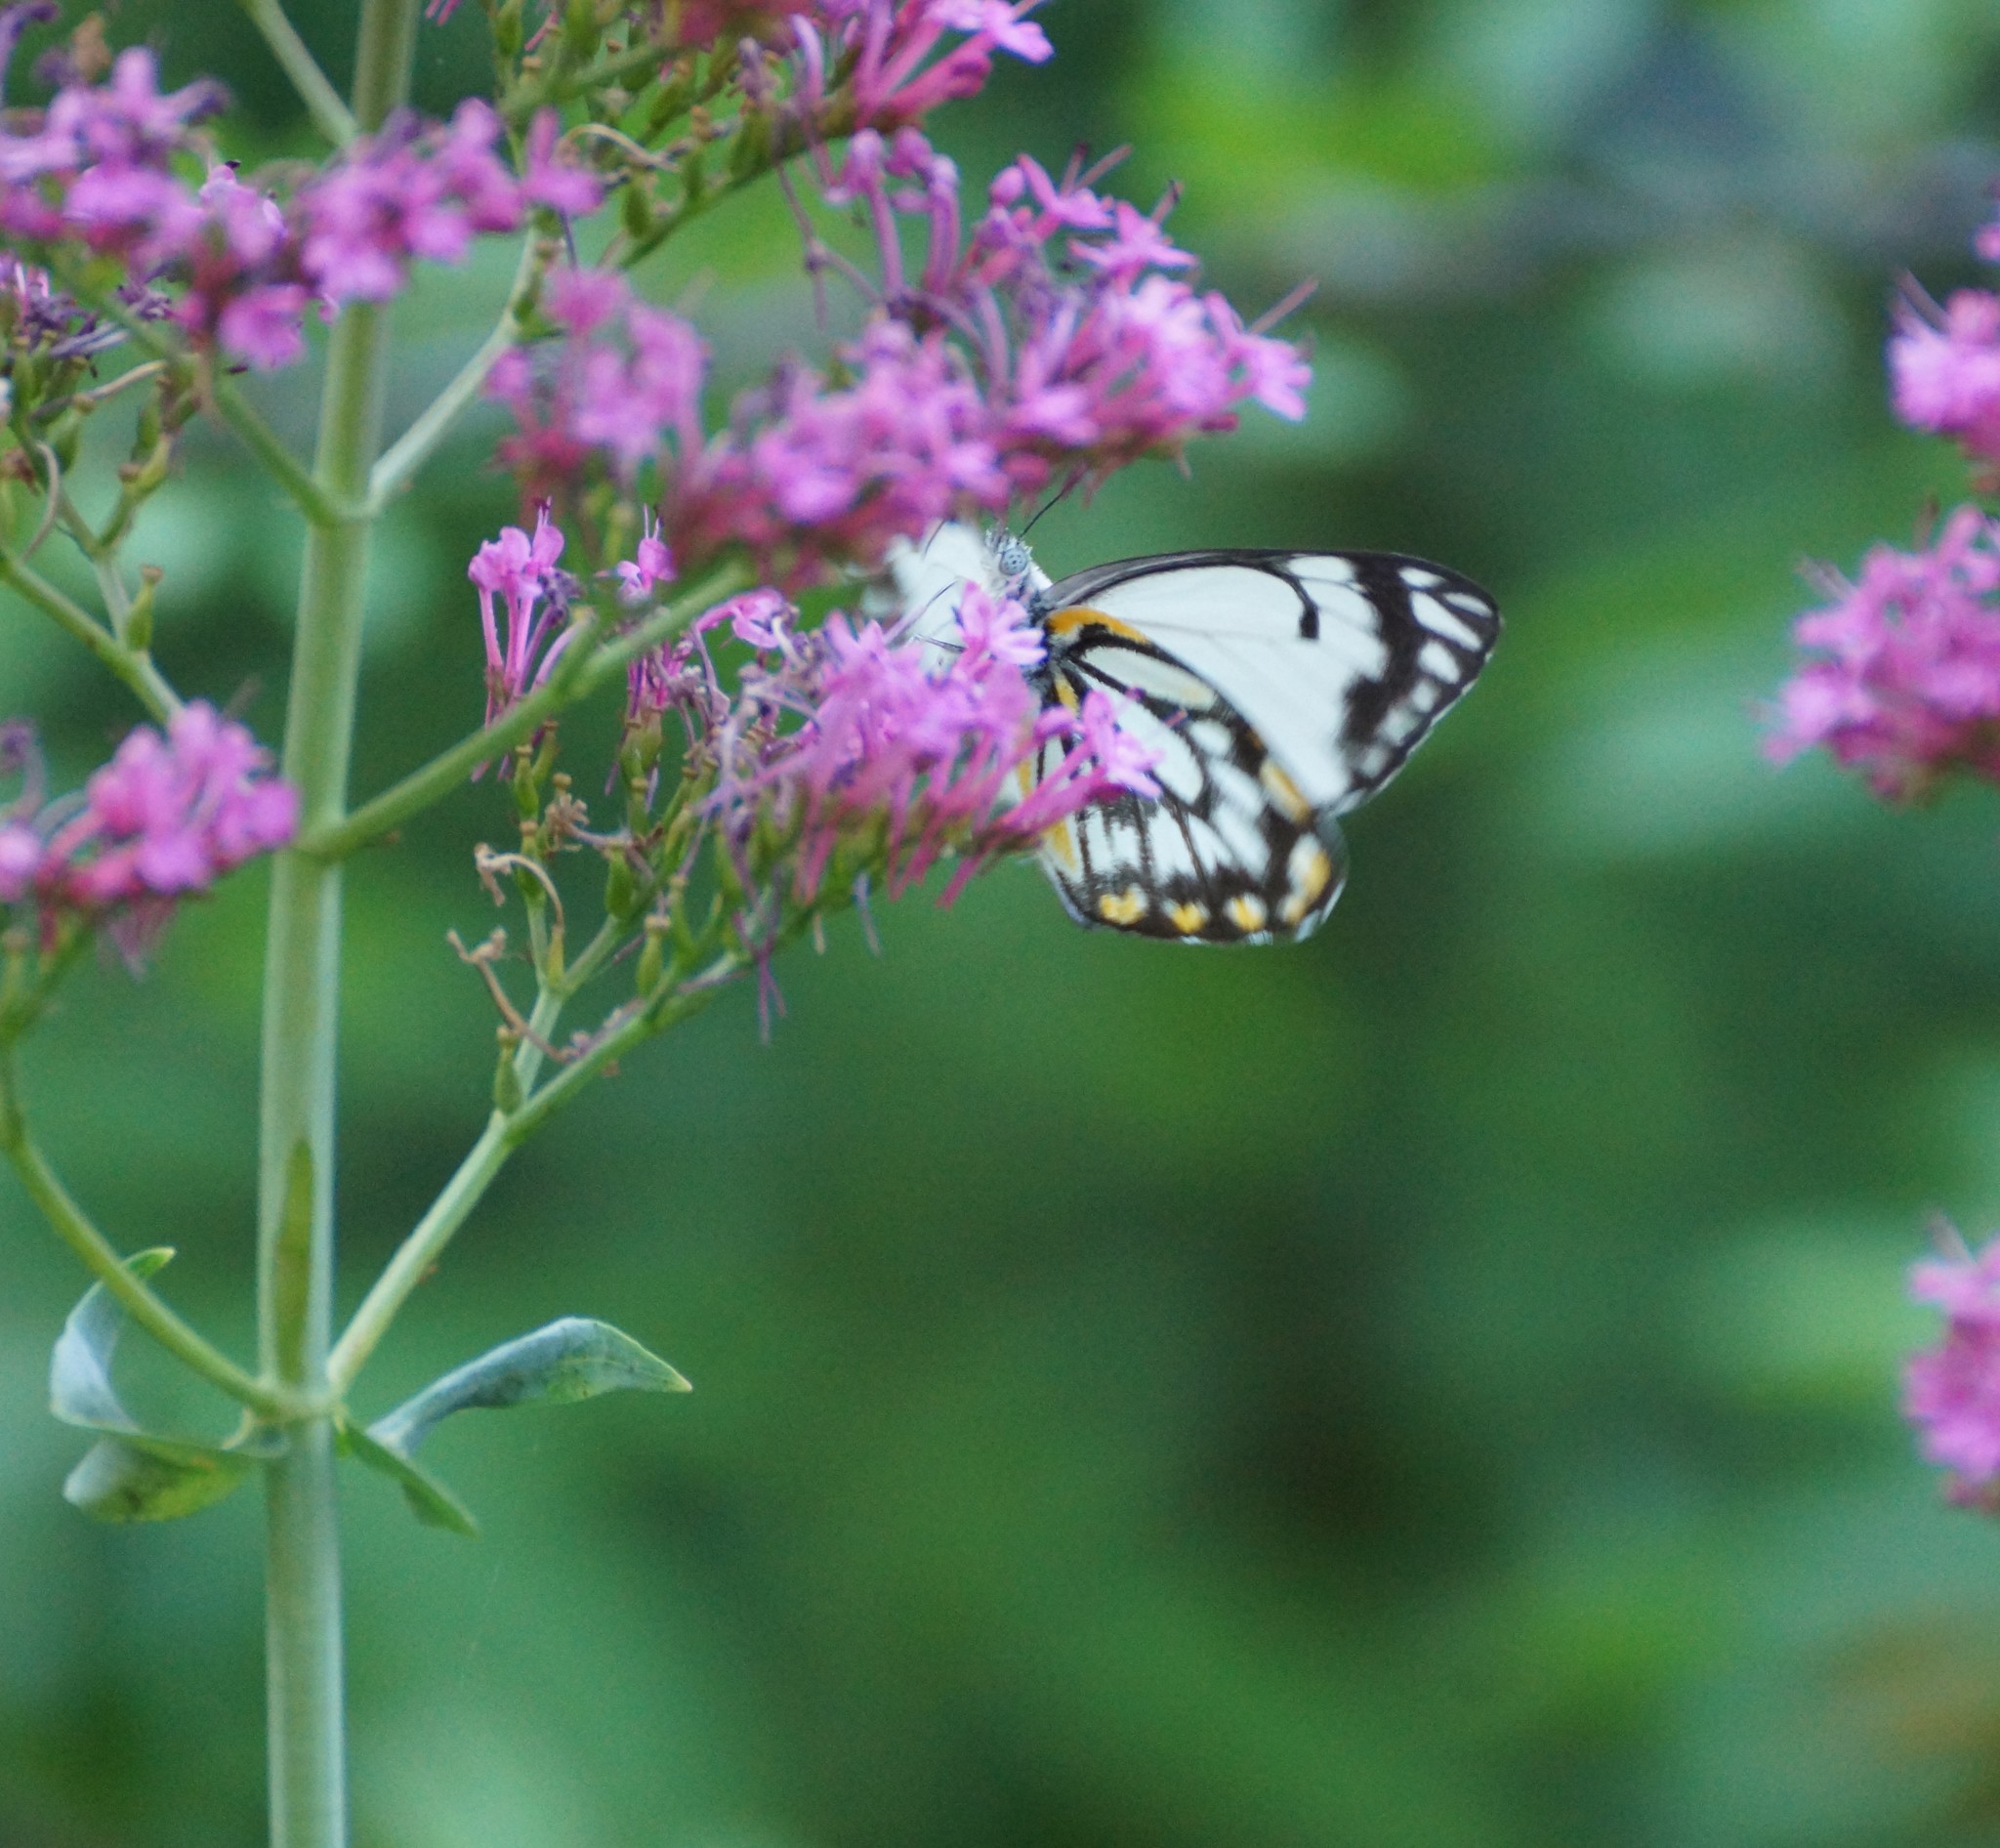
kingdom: Animalia
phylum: Arthropoda
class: Insecta
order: Lepidoptera
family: Pieridae
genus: Belenois
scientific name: Belenois java
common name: Caper white
